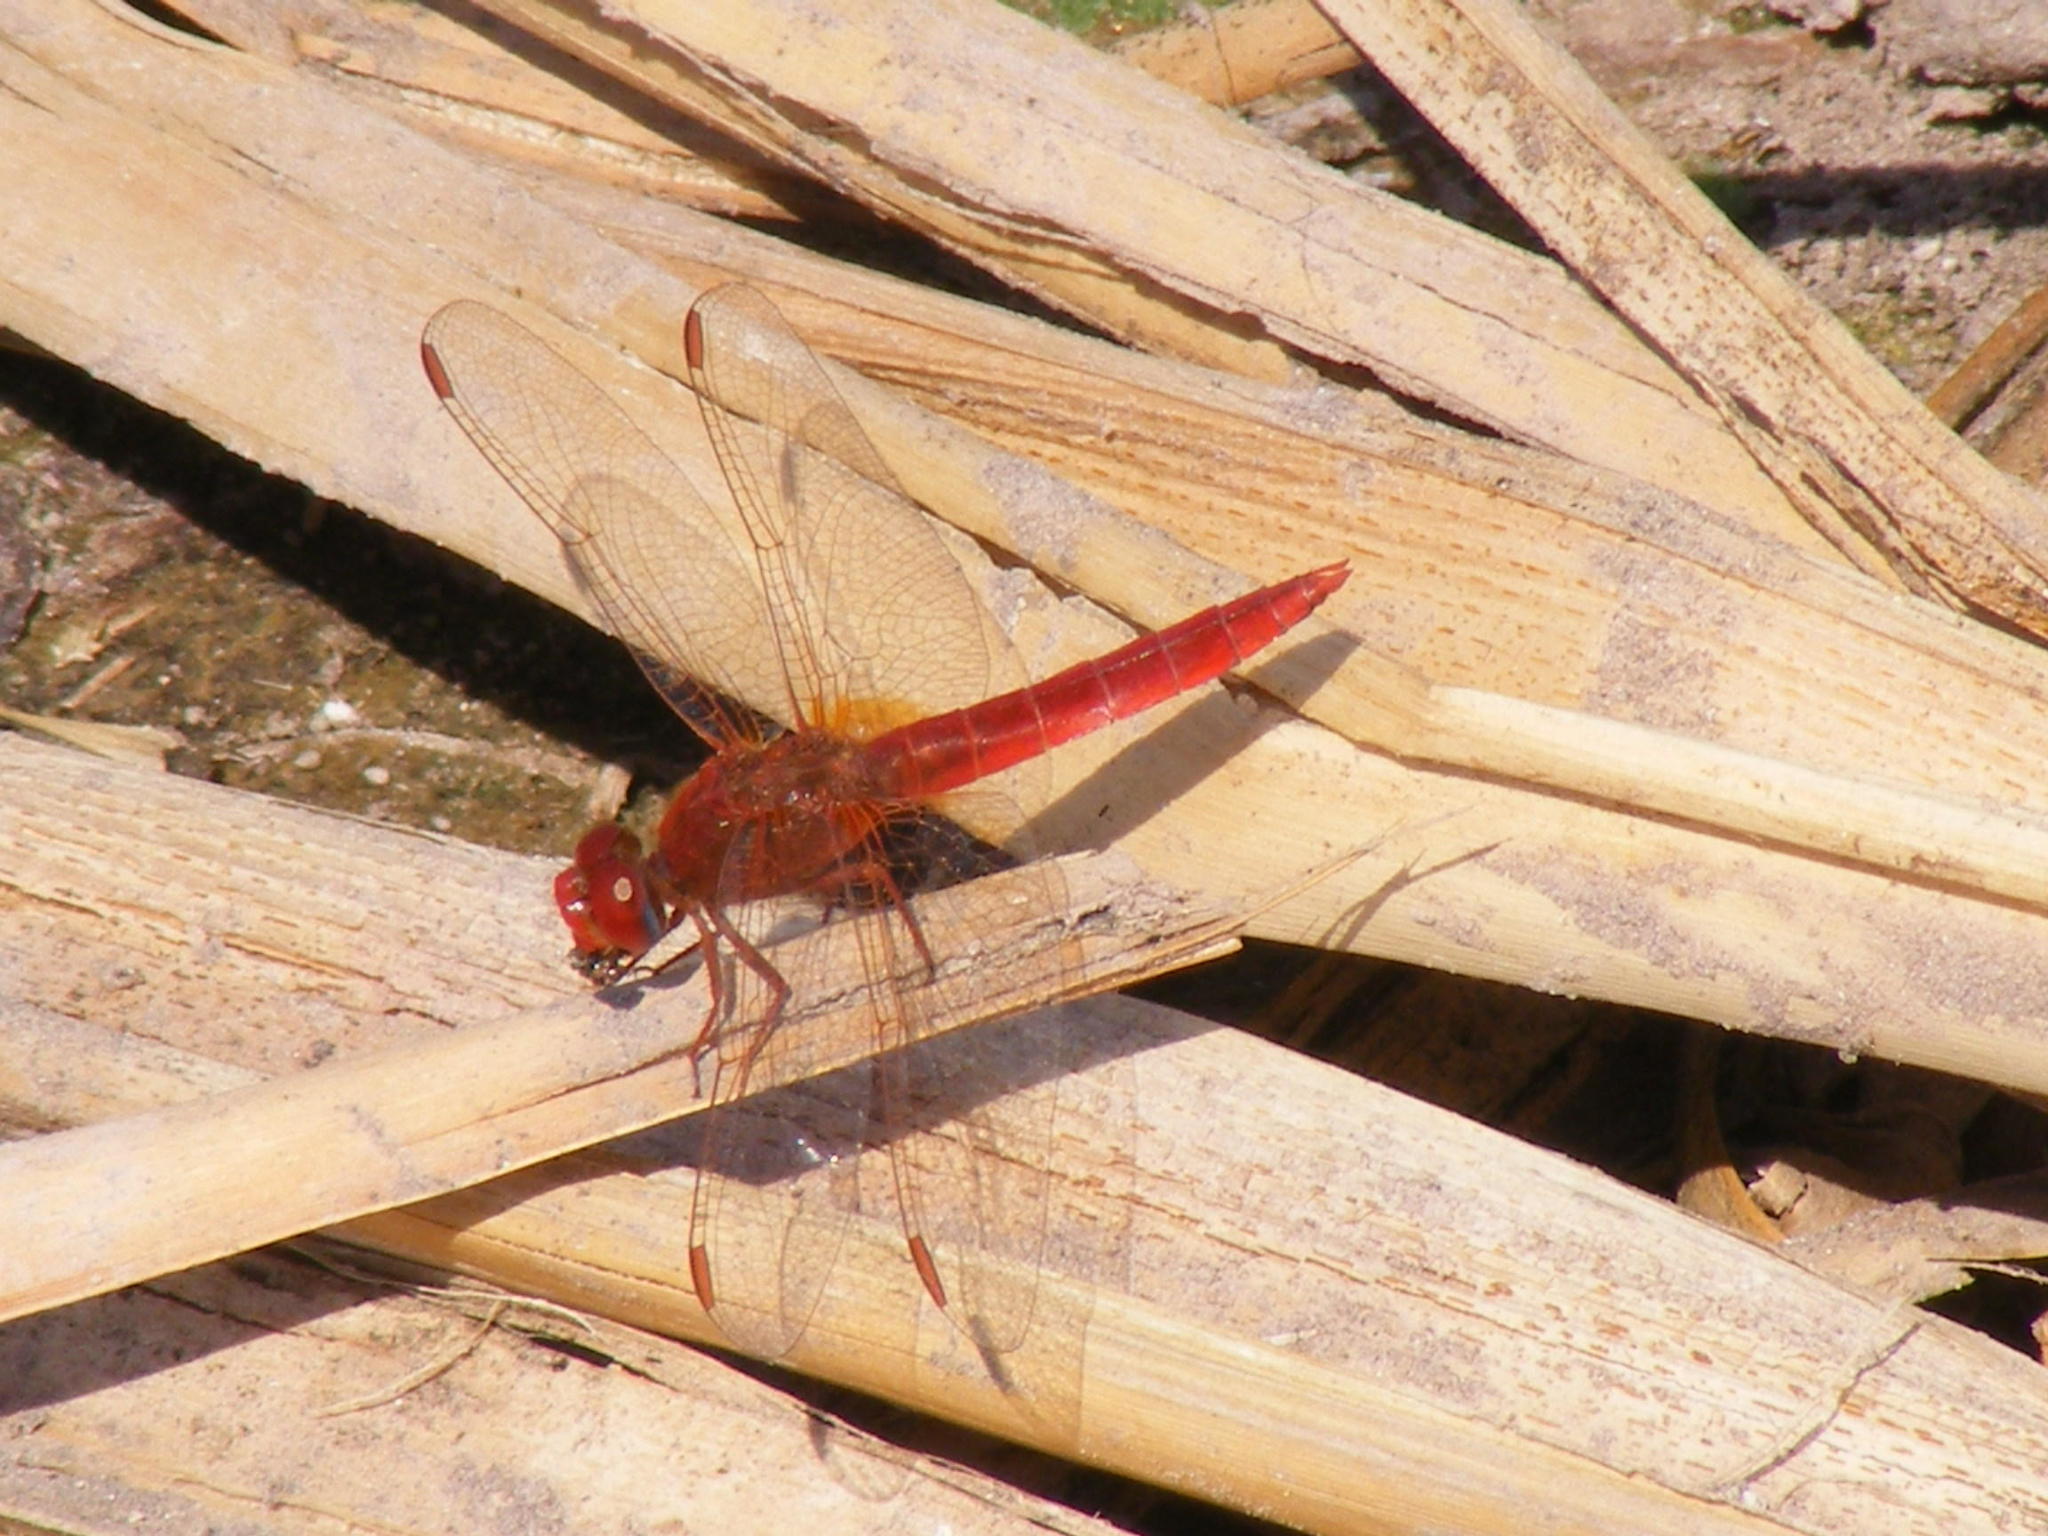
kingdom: Animalia
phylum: Arthropoda
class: Insecta
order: Odonata
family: Libellulidae
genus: Crocothemis
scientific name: Crocothemis erythraea
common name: Scarlet dragonfly
